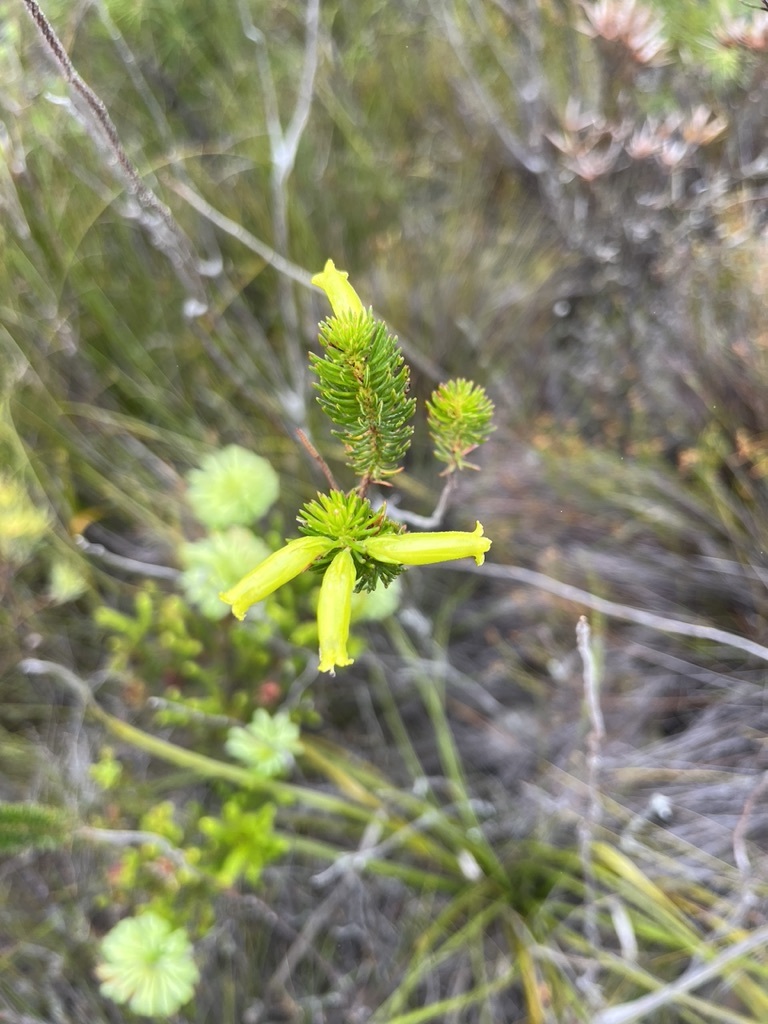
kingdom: Plantae
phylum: Tracheophyta
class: Magnoliopsida
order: Ericales
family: Ericaceae
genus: Erica
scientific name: Erica viscaria
